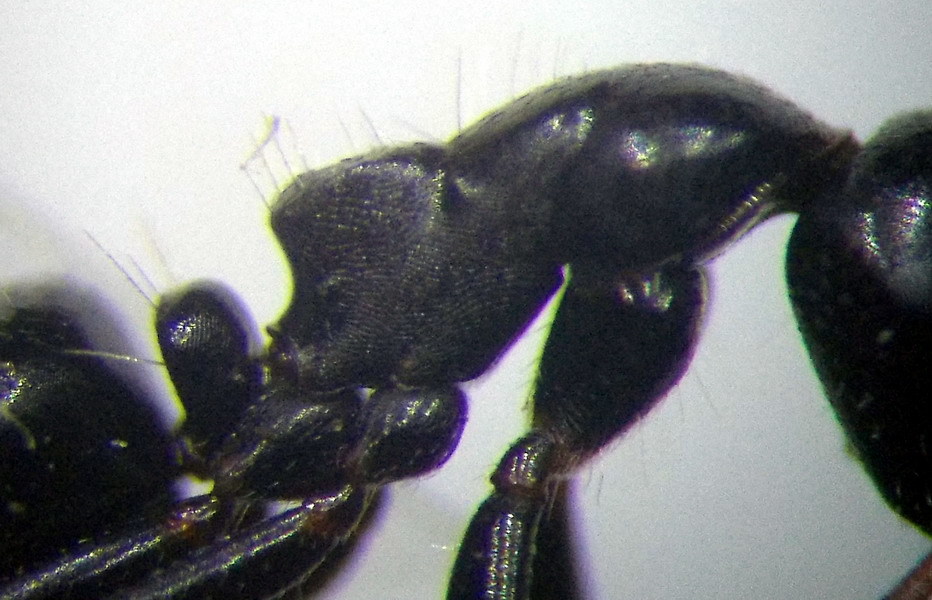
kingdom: Animalia
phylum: Arthropoda
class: Insecta
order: Hymenoptera
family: Formicidae
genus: Camponotus
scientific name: Camponotus piceus
